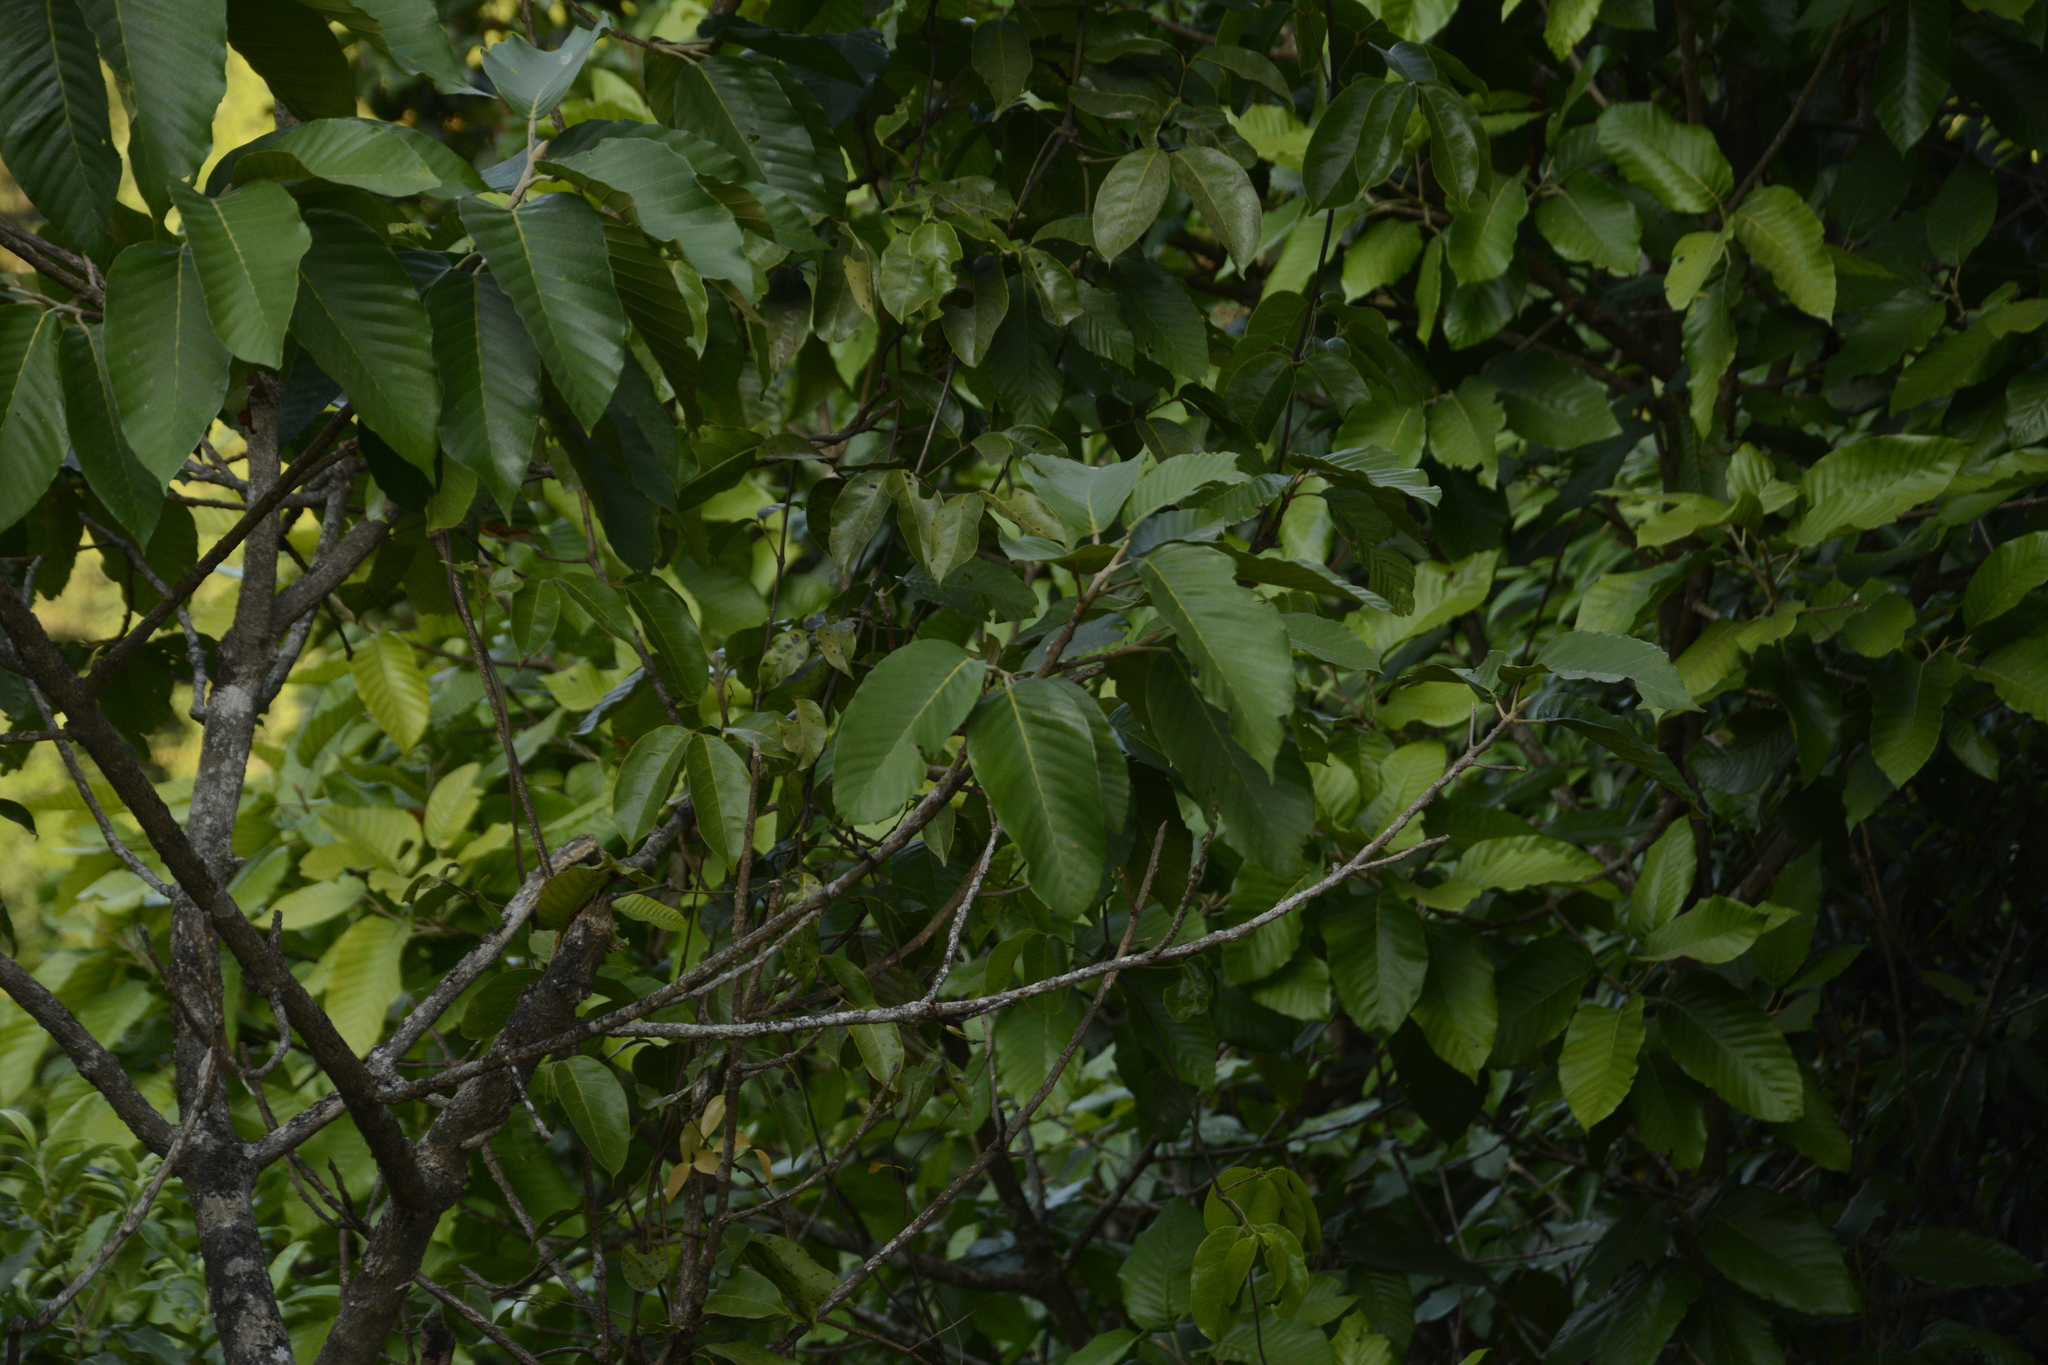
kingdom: Plantae
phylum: Tracheophyta
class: Magnoliopsida
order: Rosales
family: Moraceae
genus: Artocarpus
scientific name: Artocarpus hirsutus
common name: Hairy bread-fruit tree
